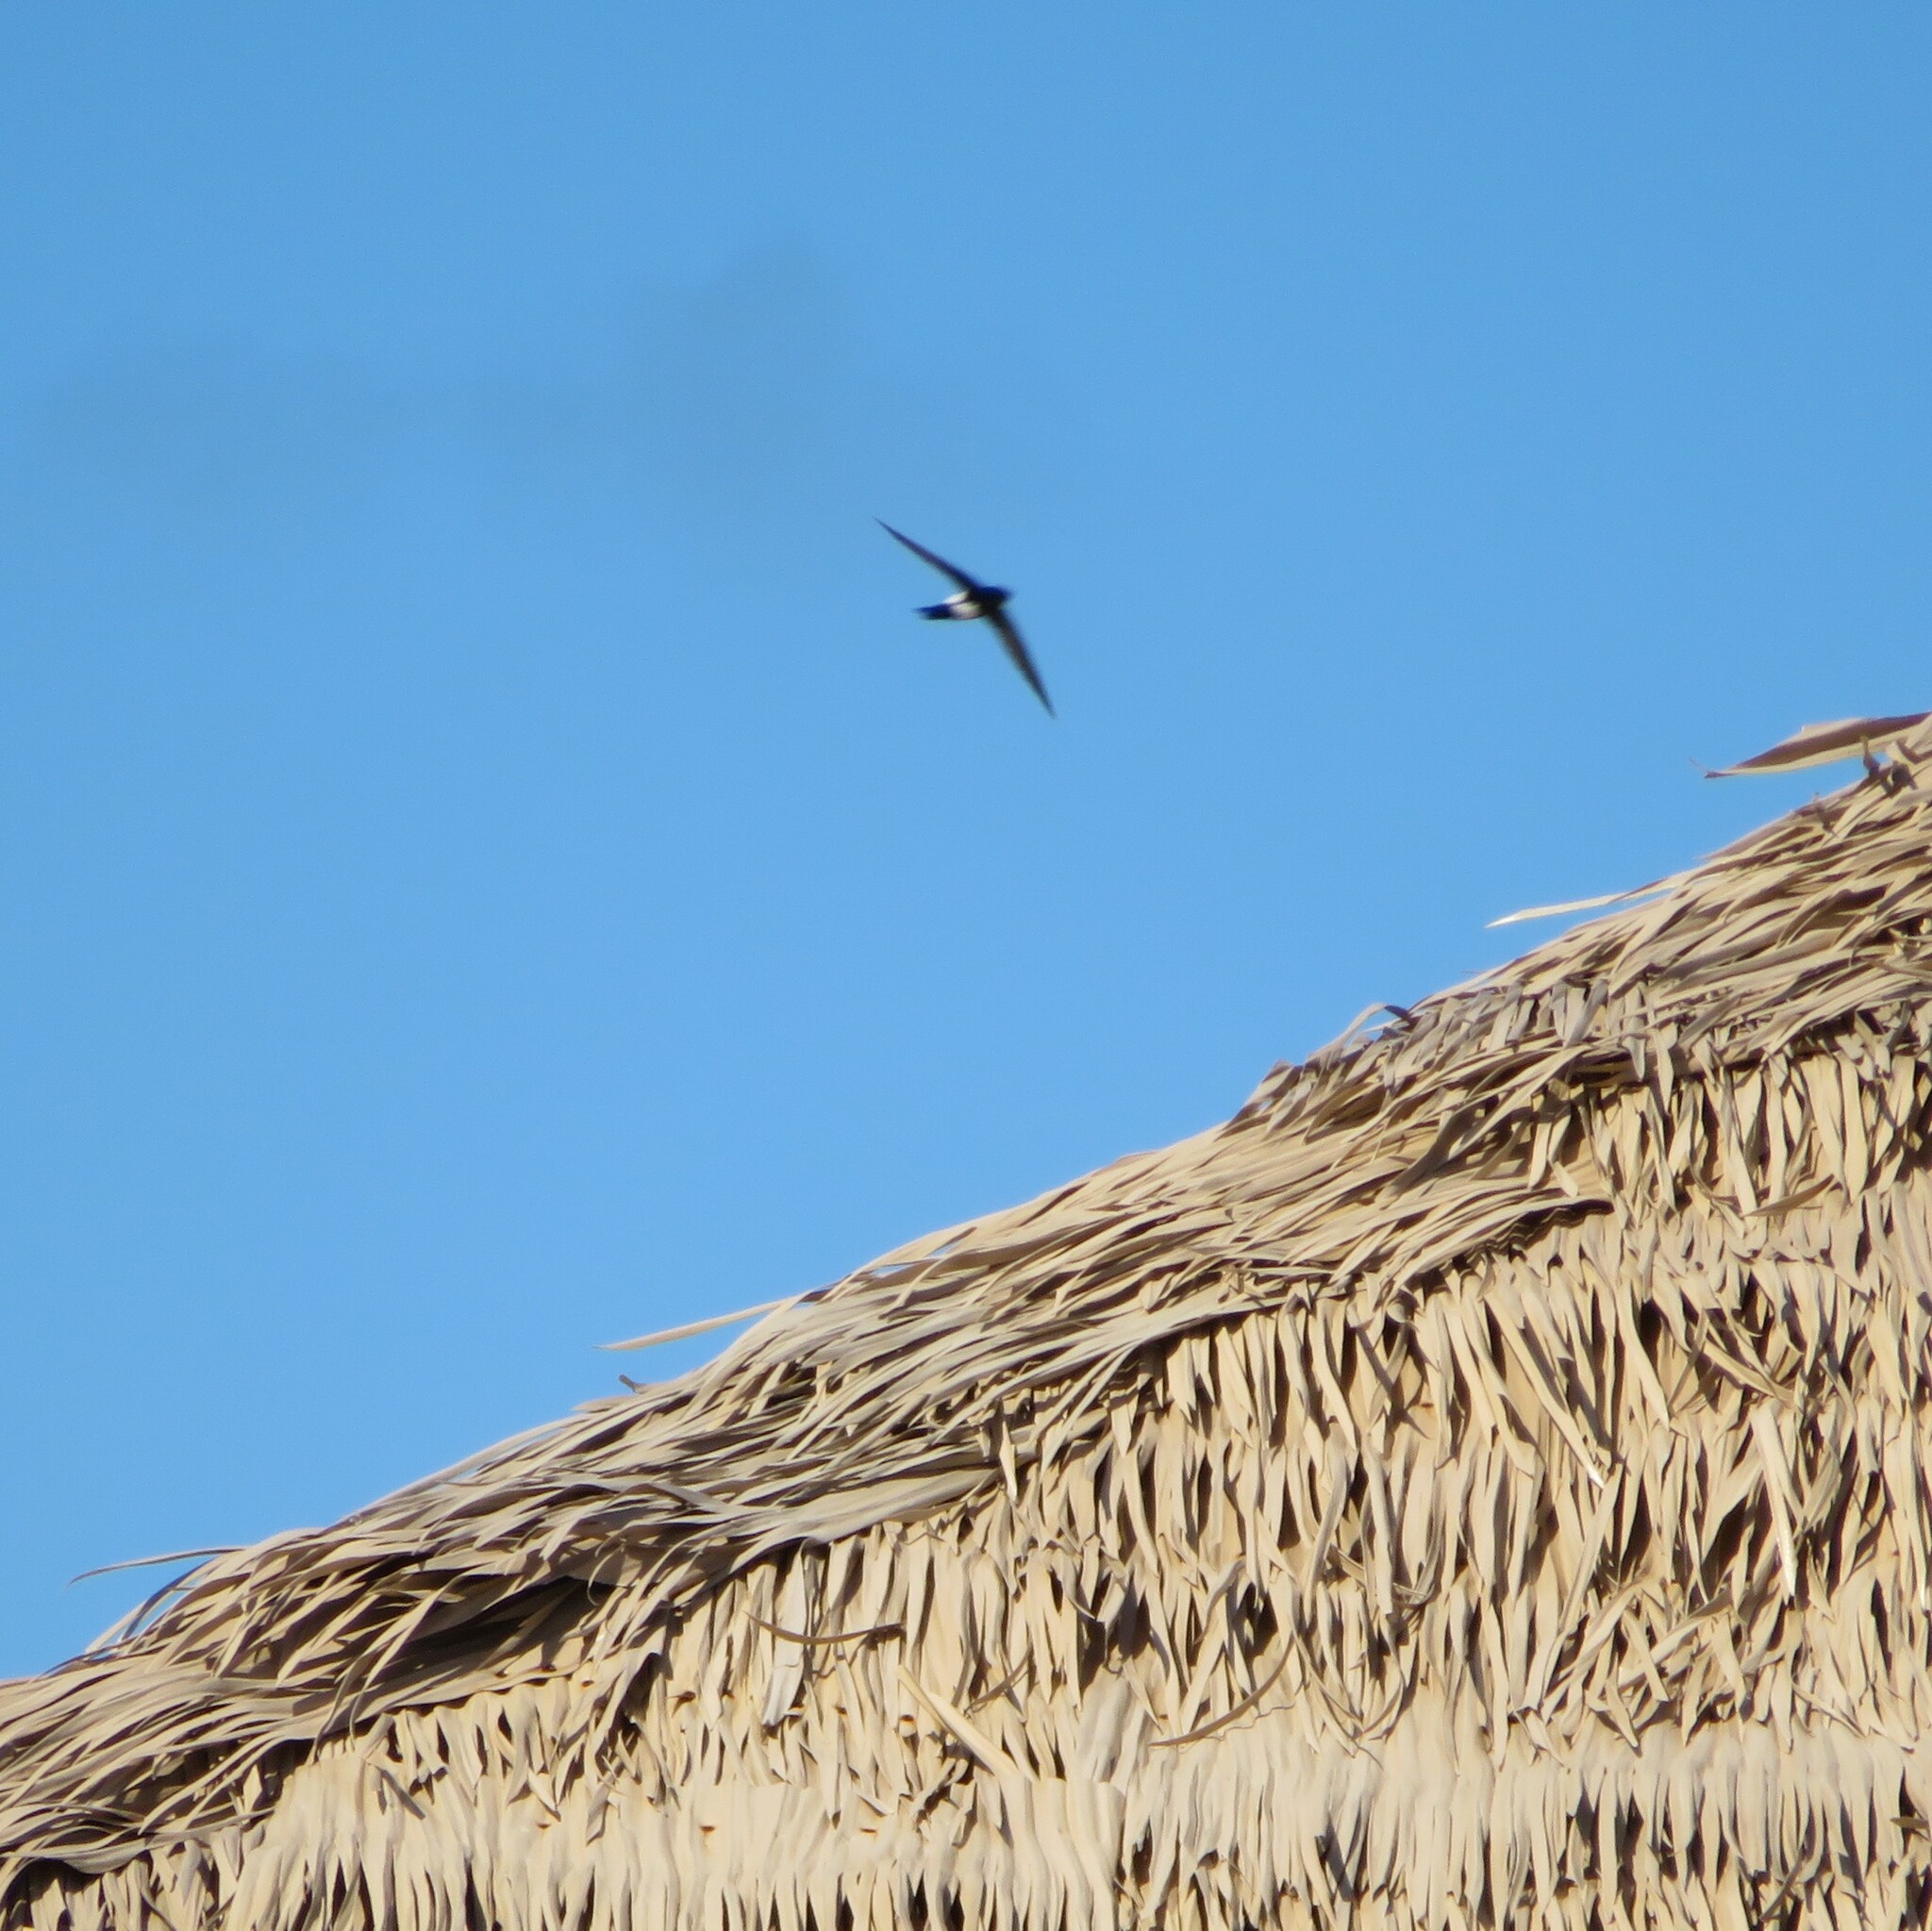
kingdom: Animalia
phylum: Chordata
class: Aves
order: Apodiformes
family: Apodidae
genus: Tachornis
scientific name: Tachornis phoenicobia
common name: Antillean palm swift
